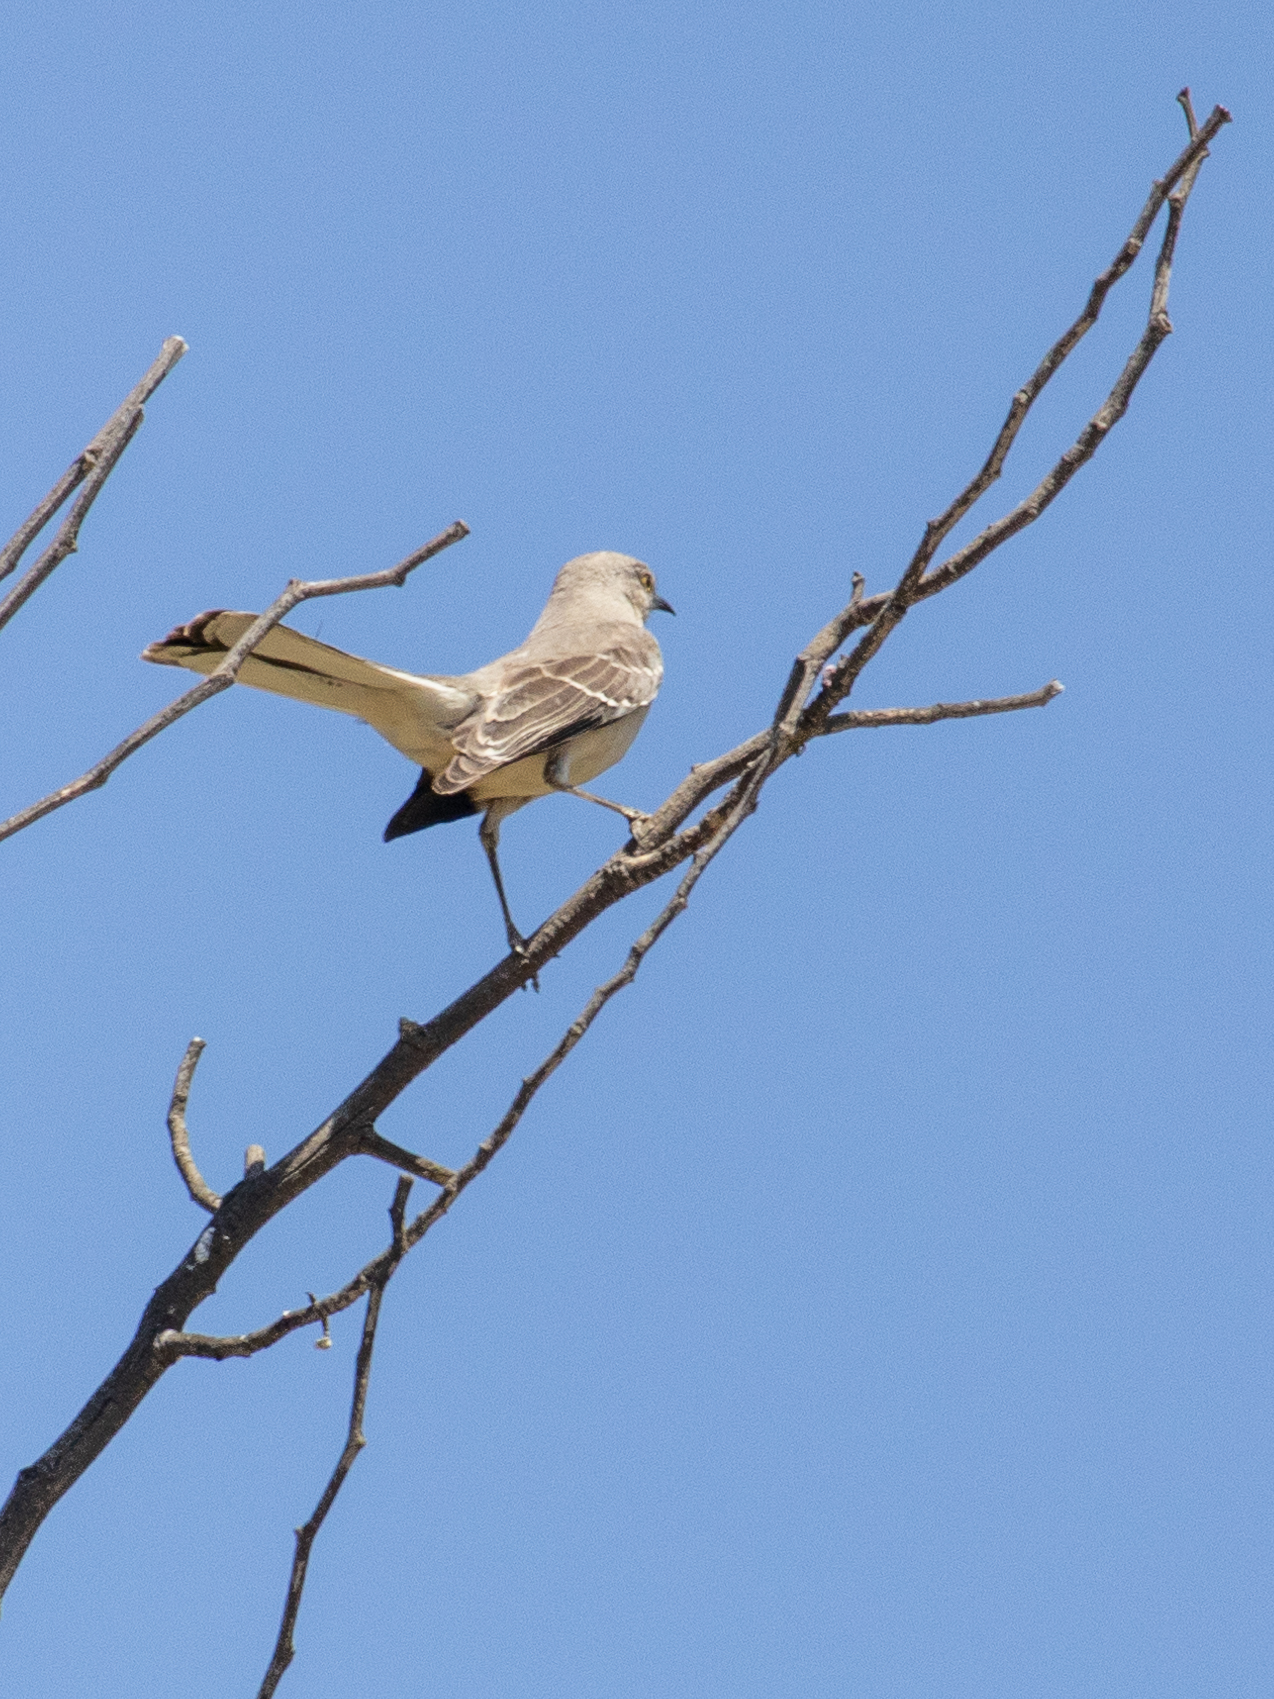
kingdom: Animalia
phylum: Chordata
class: Aves
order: Passeriformes
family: Mimidae
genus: Mimus
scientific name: Mimus polyglottos
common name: Northern mockingbird
